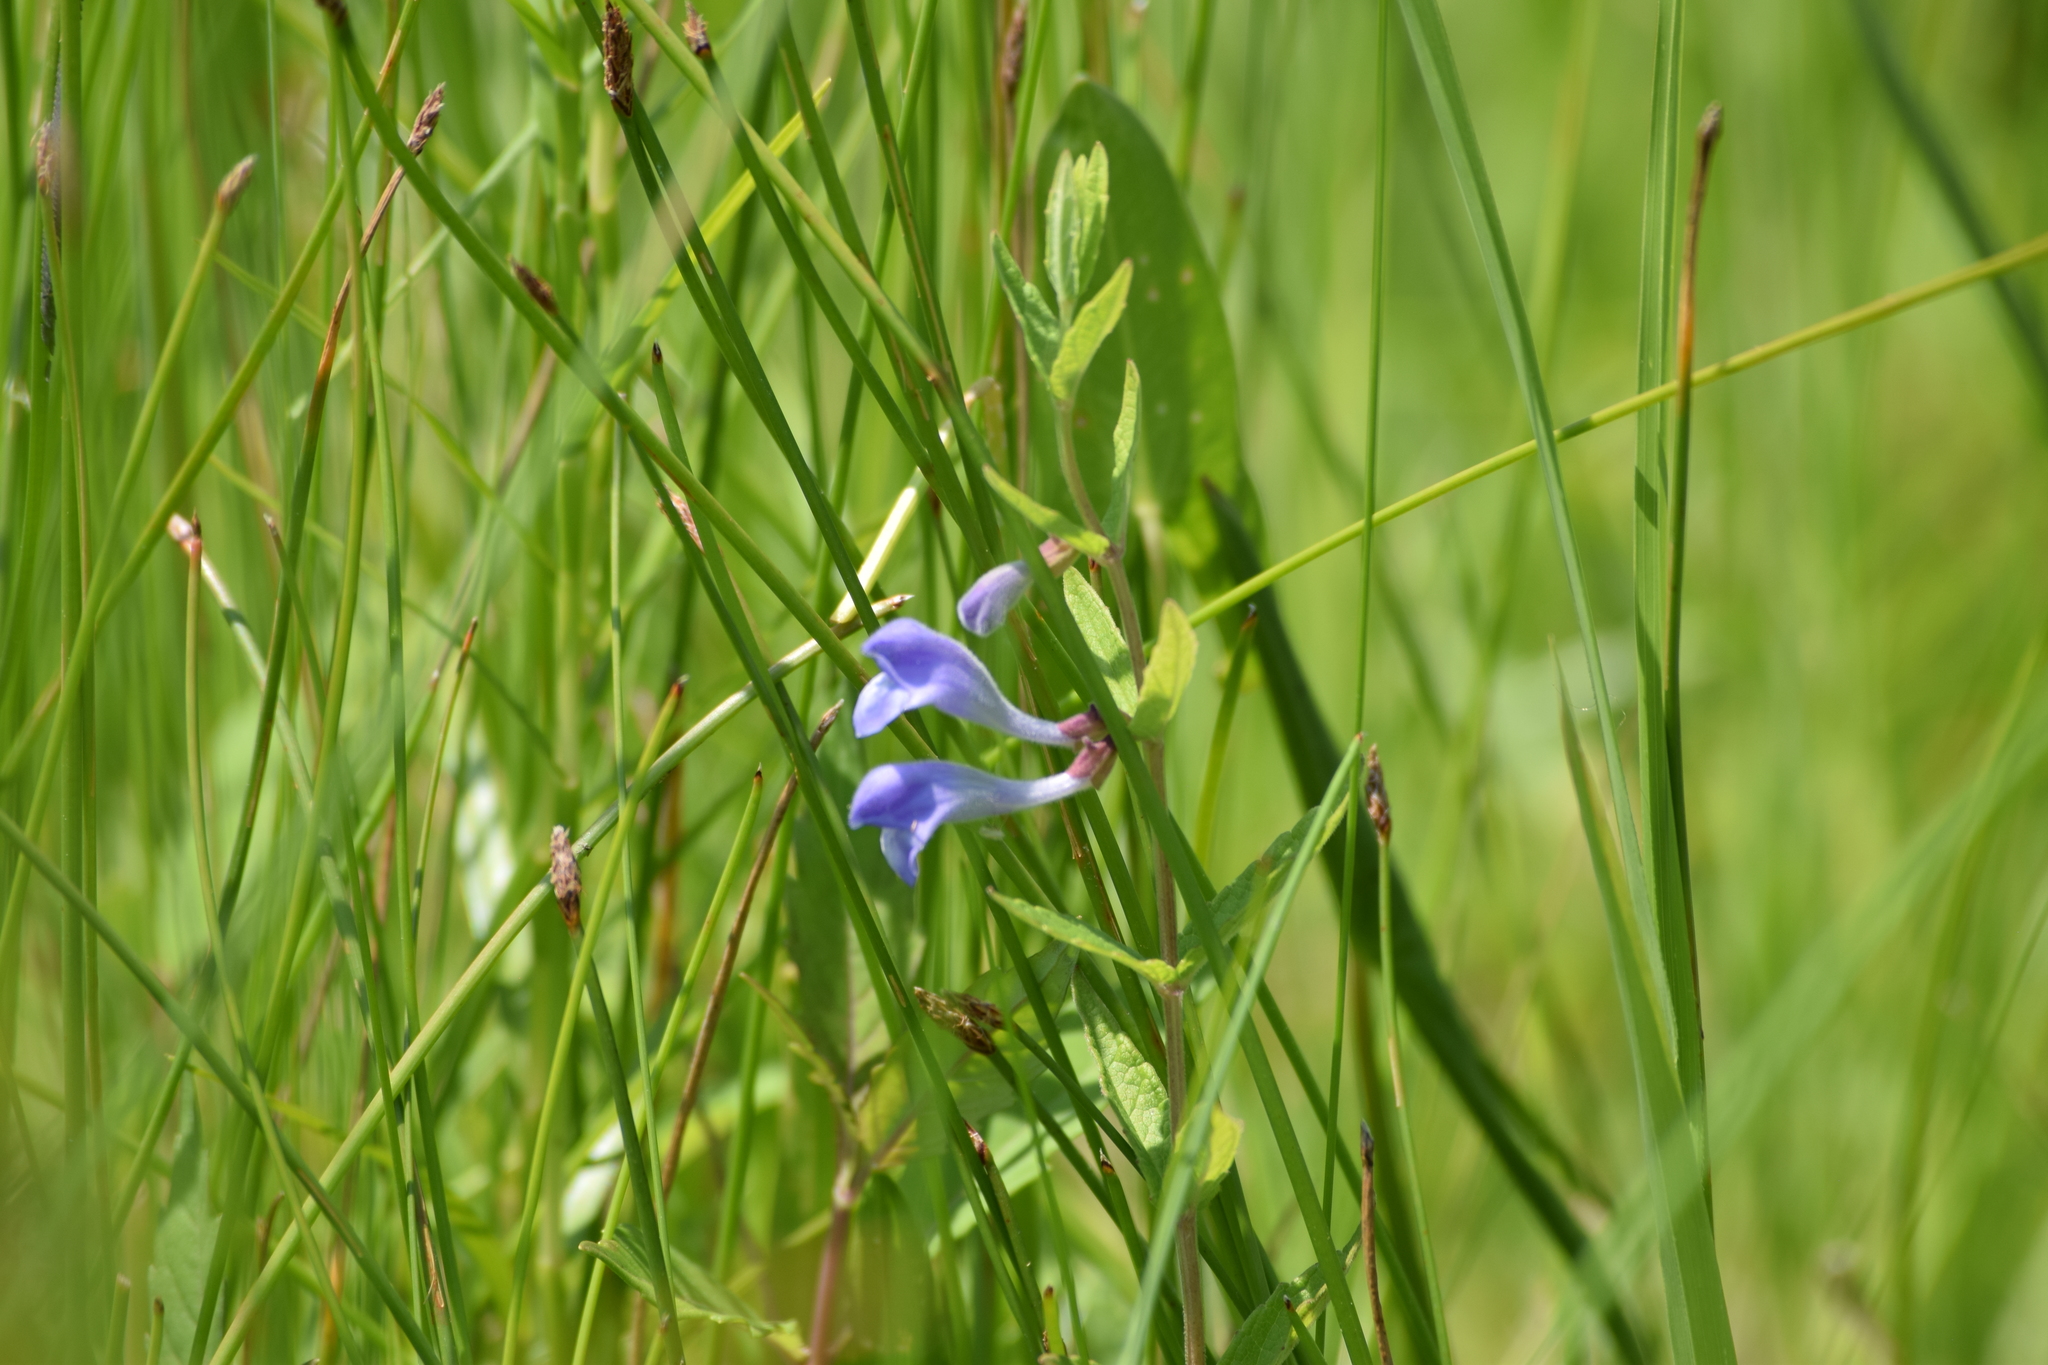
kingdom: Plantae
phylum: Tracheophyta
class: Magnoliopsida
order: Lamiales
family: Lamiaceae
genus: Scutellaria
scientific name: Scutellaria galericulata
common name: Skullcap
